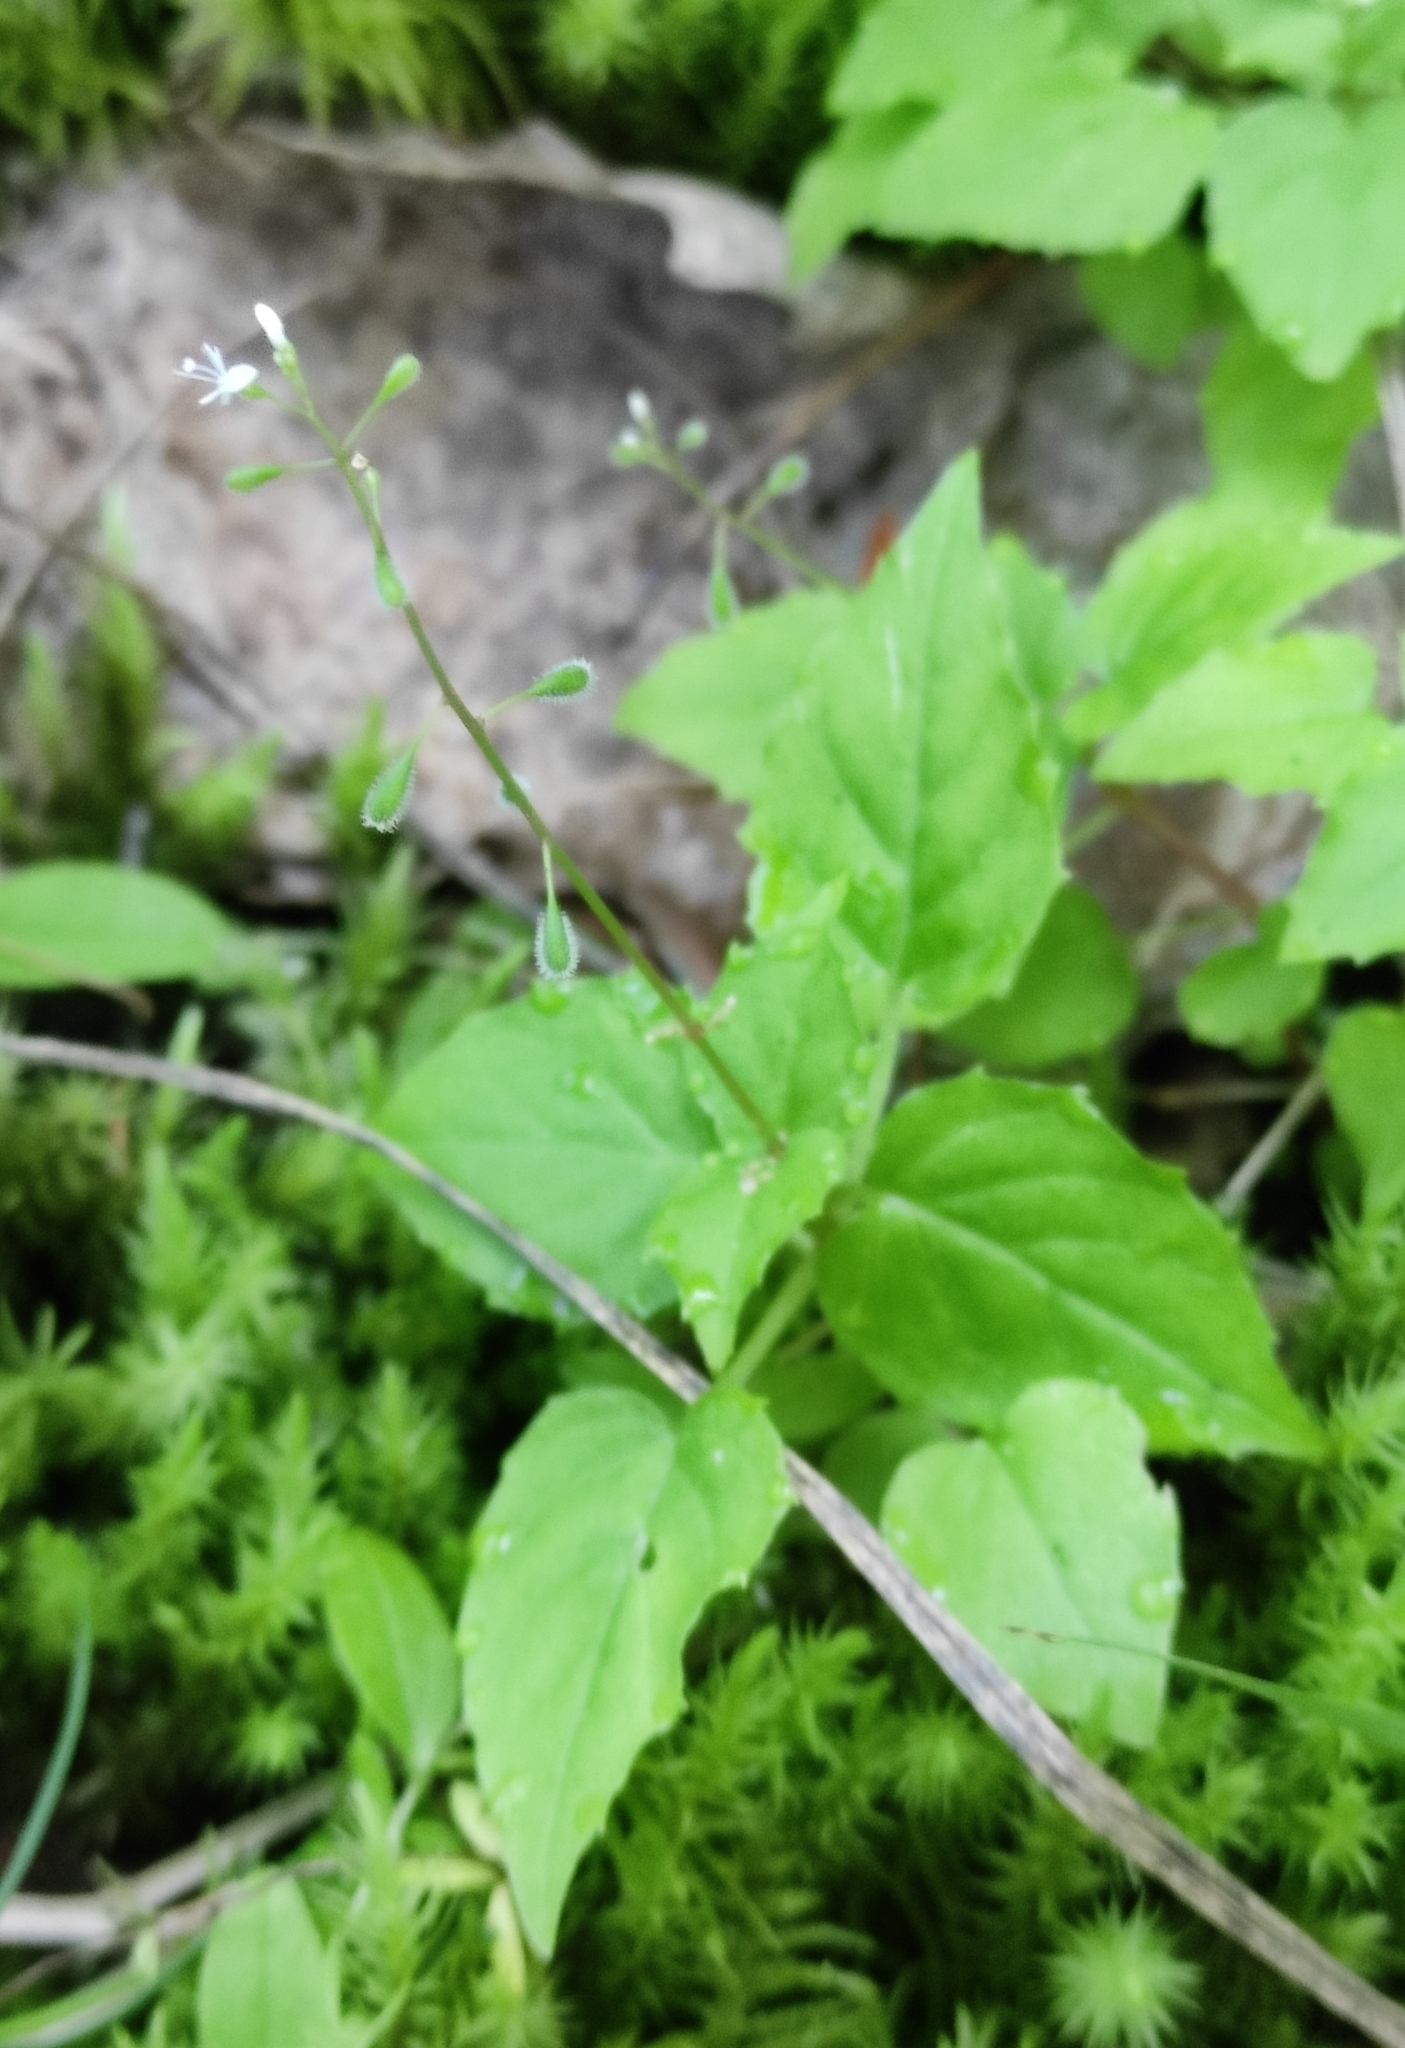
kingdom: Plantae
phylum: Tracheophyta
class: Magnoliopsida
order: Myrtales
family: Onagraceae
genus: Circaea
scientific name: Circaea alpina
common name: Alpine enchanter's-nightshade
